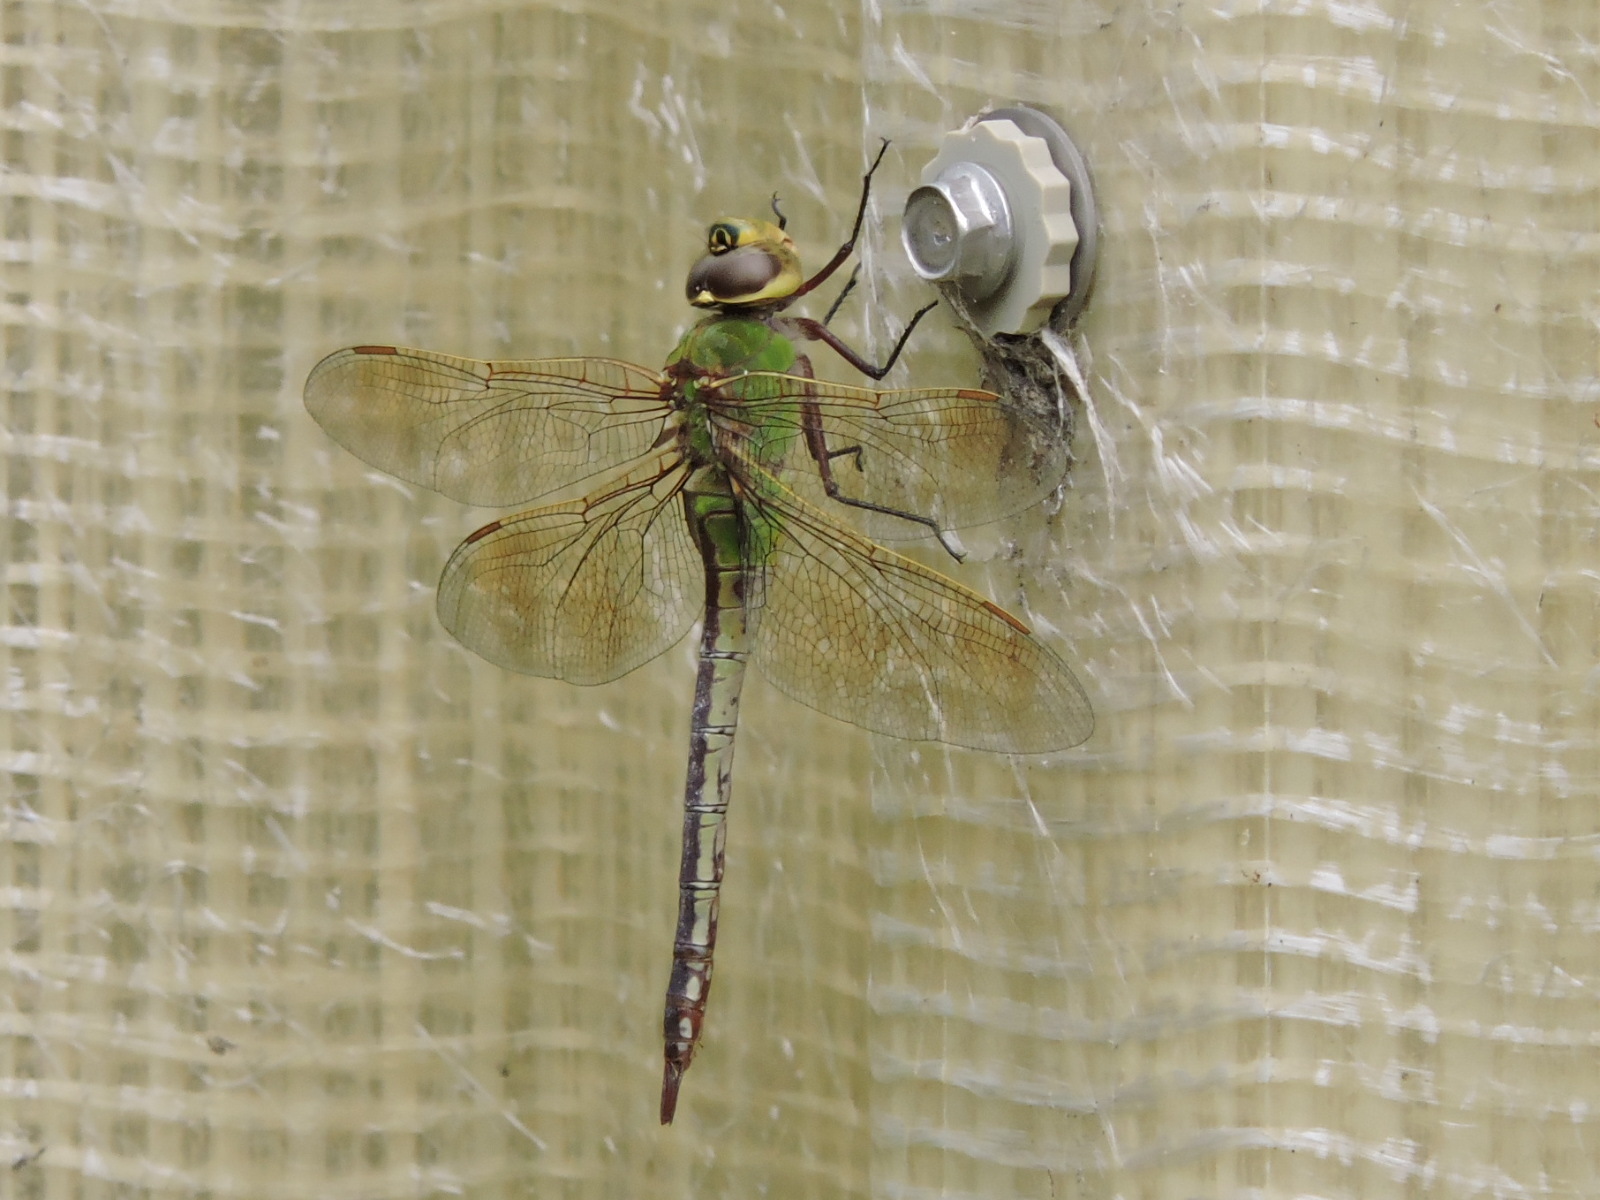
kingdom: Animalia
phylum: Arthropoda
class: Insecta
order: Odonata
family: Aeshnidae
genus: Anax
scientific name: Anax junius
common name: Common green darner
